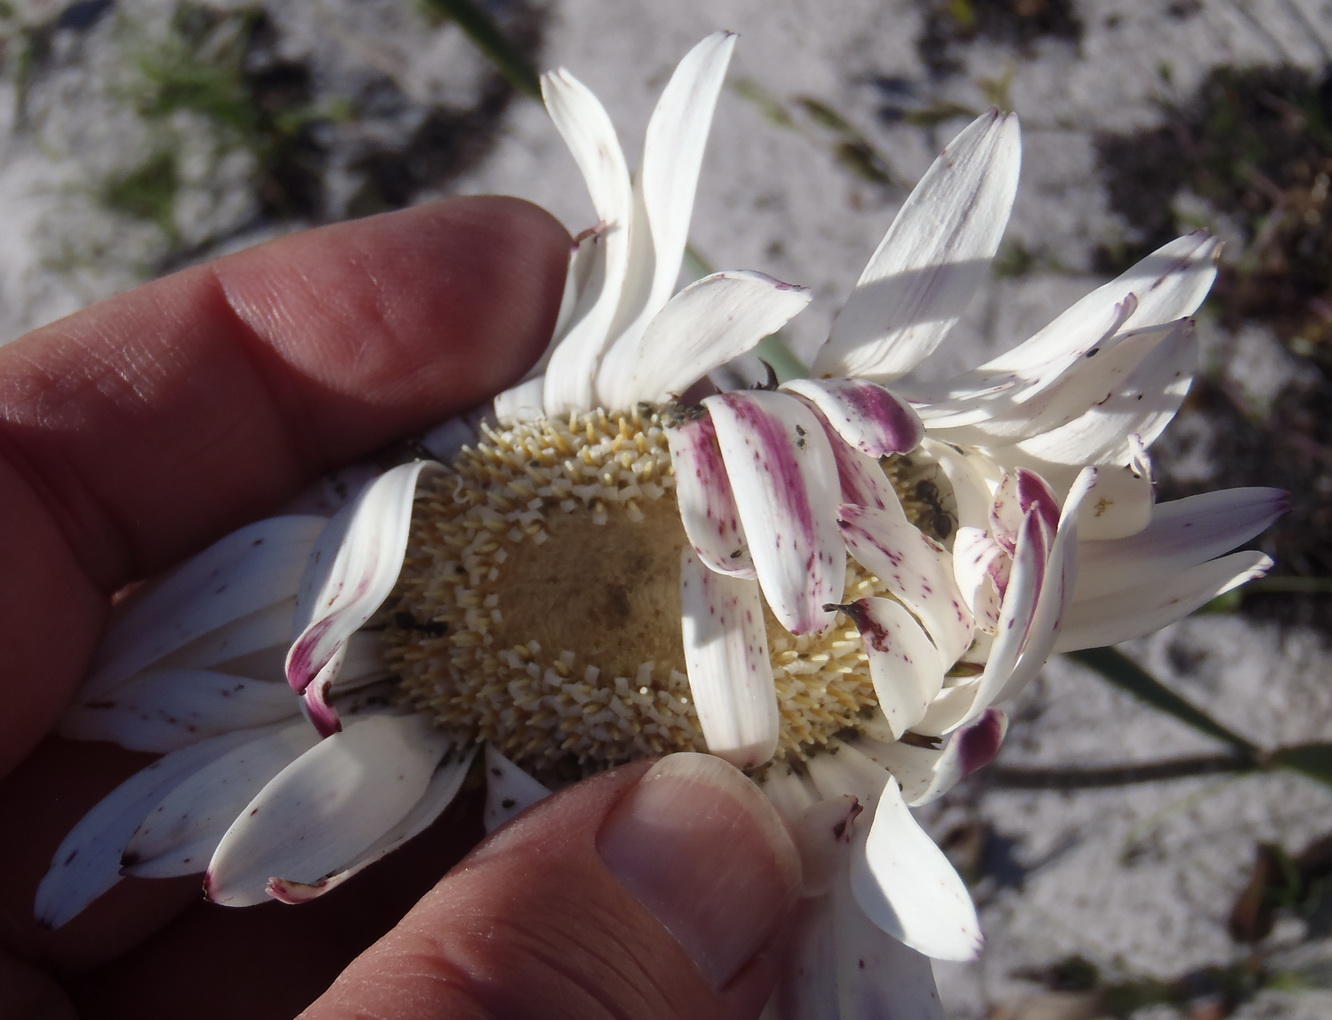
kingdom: Plantae
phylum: Tracheophyta
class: Magnoliopsida
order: Asterales
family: Asteraceae
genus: Gerbera
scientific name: Gerbera wrightii
